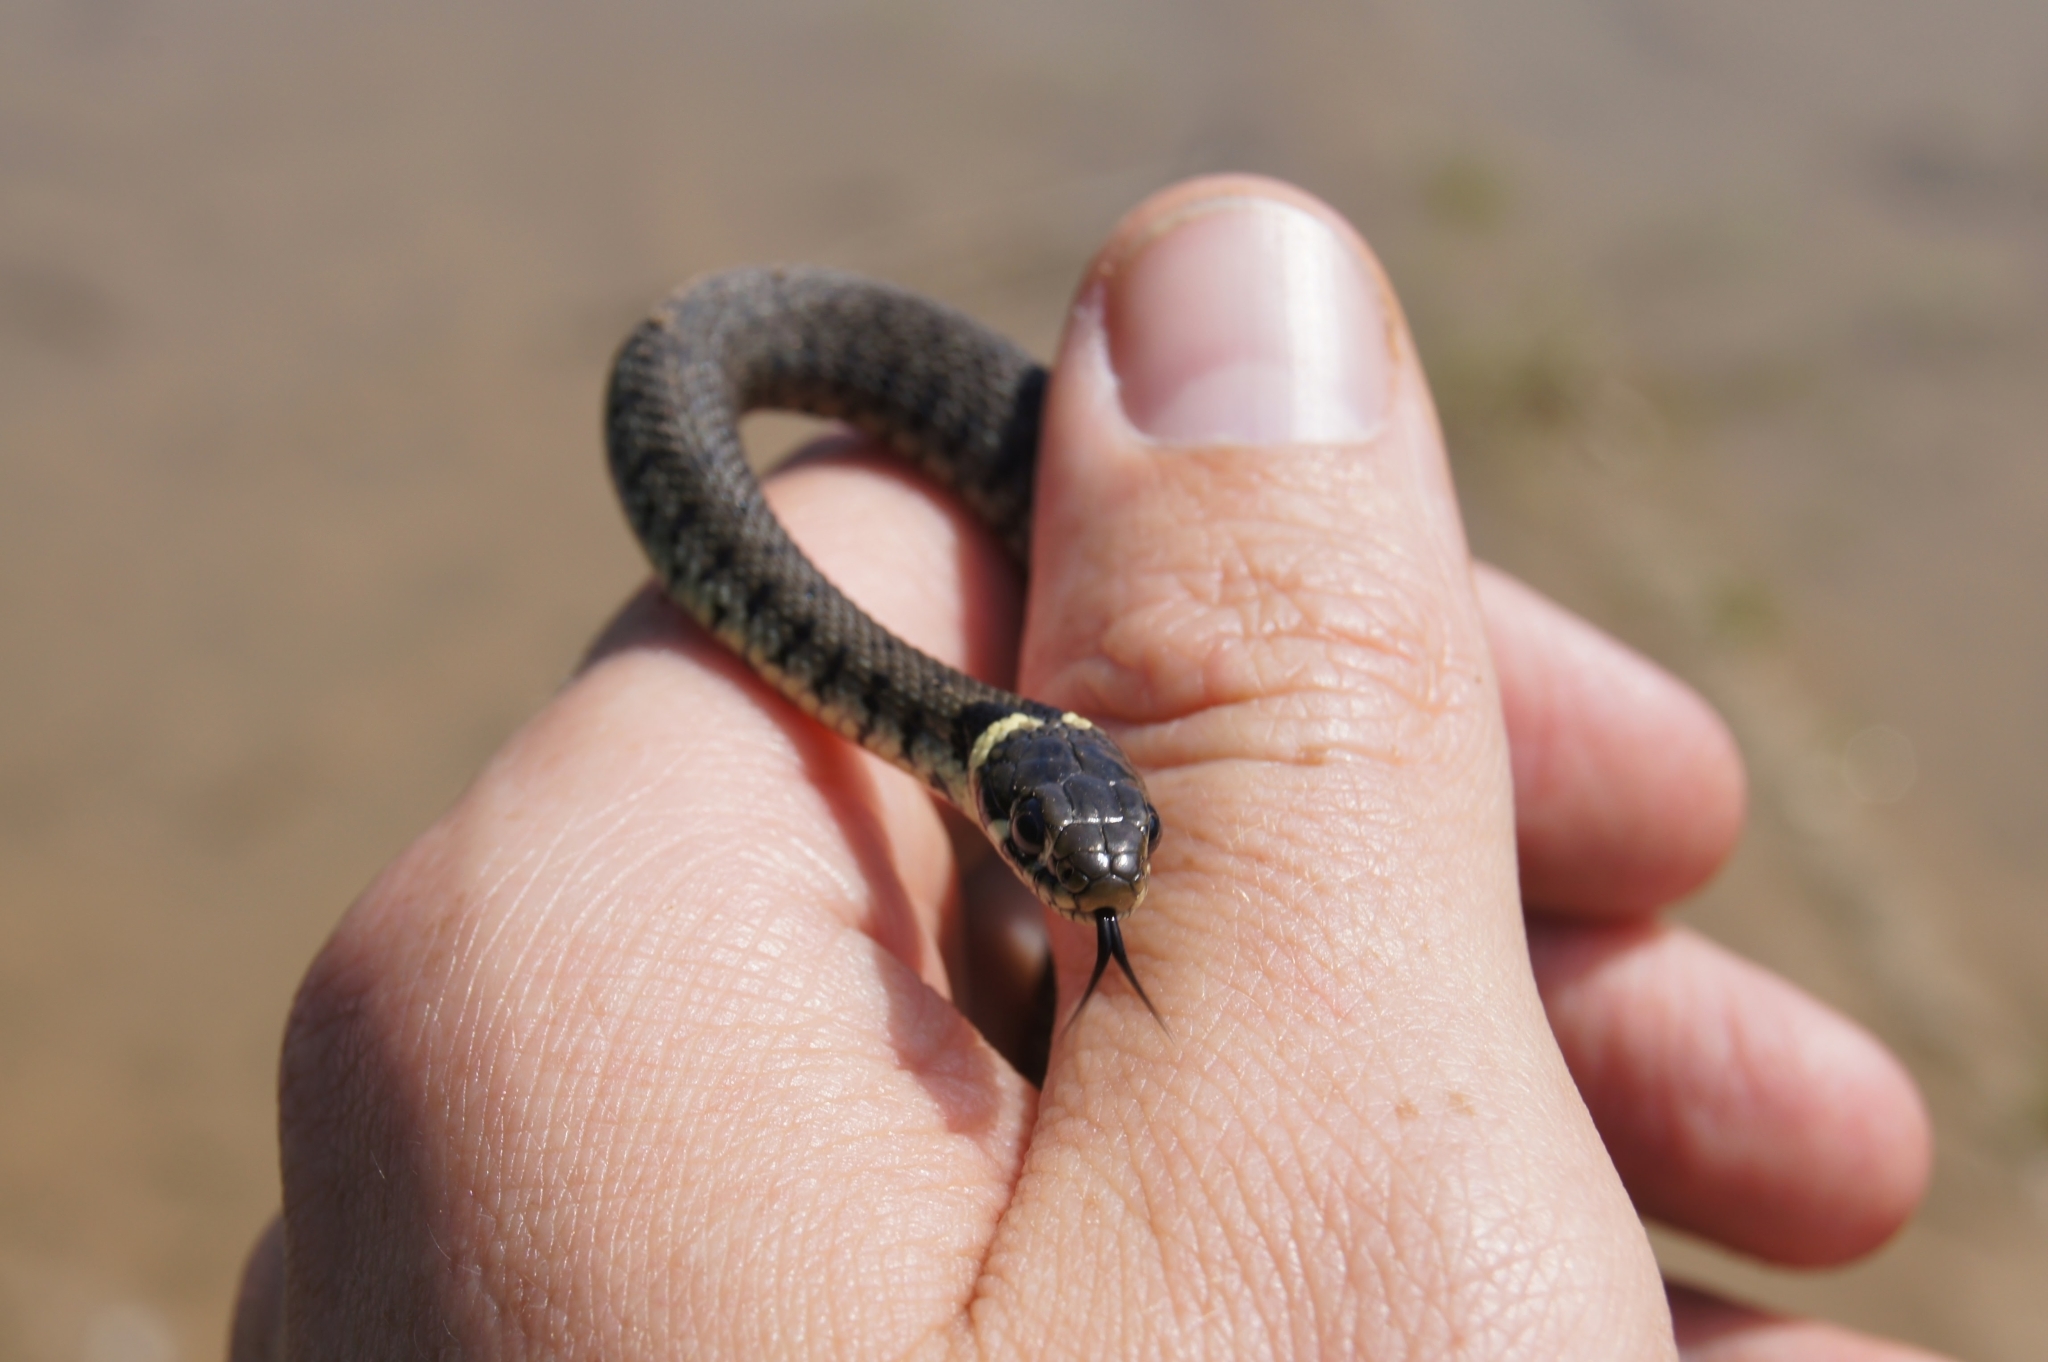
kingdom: Animalia
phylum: Chordata
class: Squamata
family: Colubridae
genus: Natrix
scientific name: Natrix helvetica
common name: Banded grass snake
